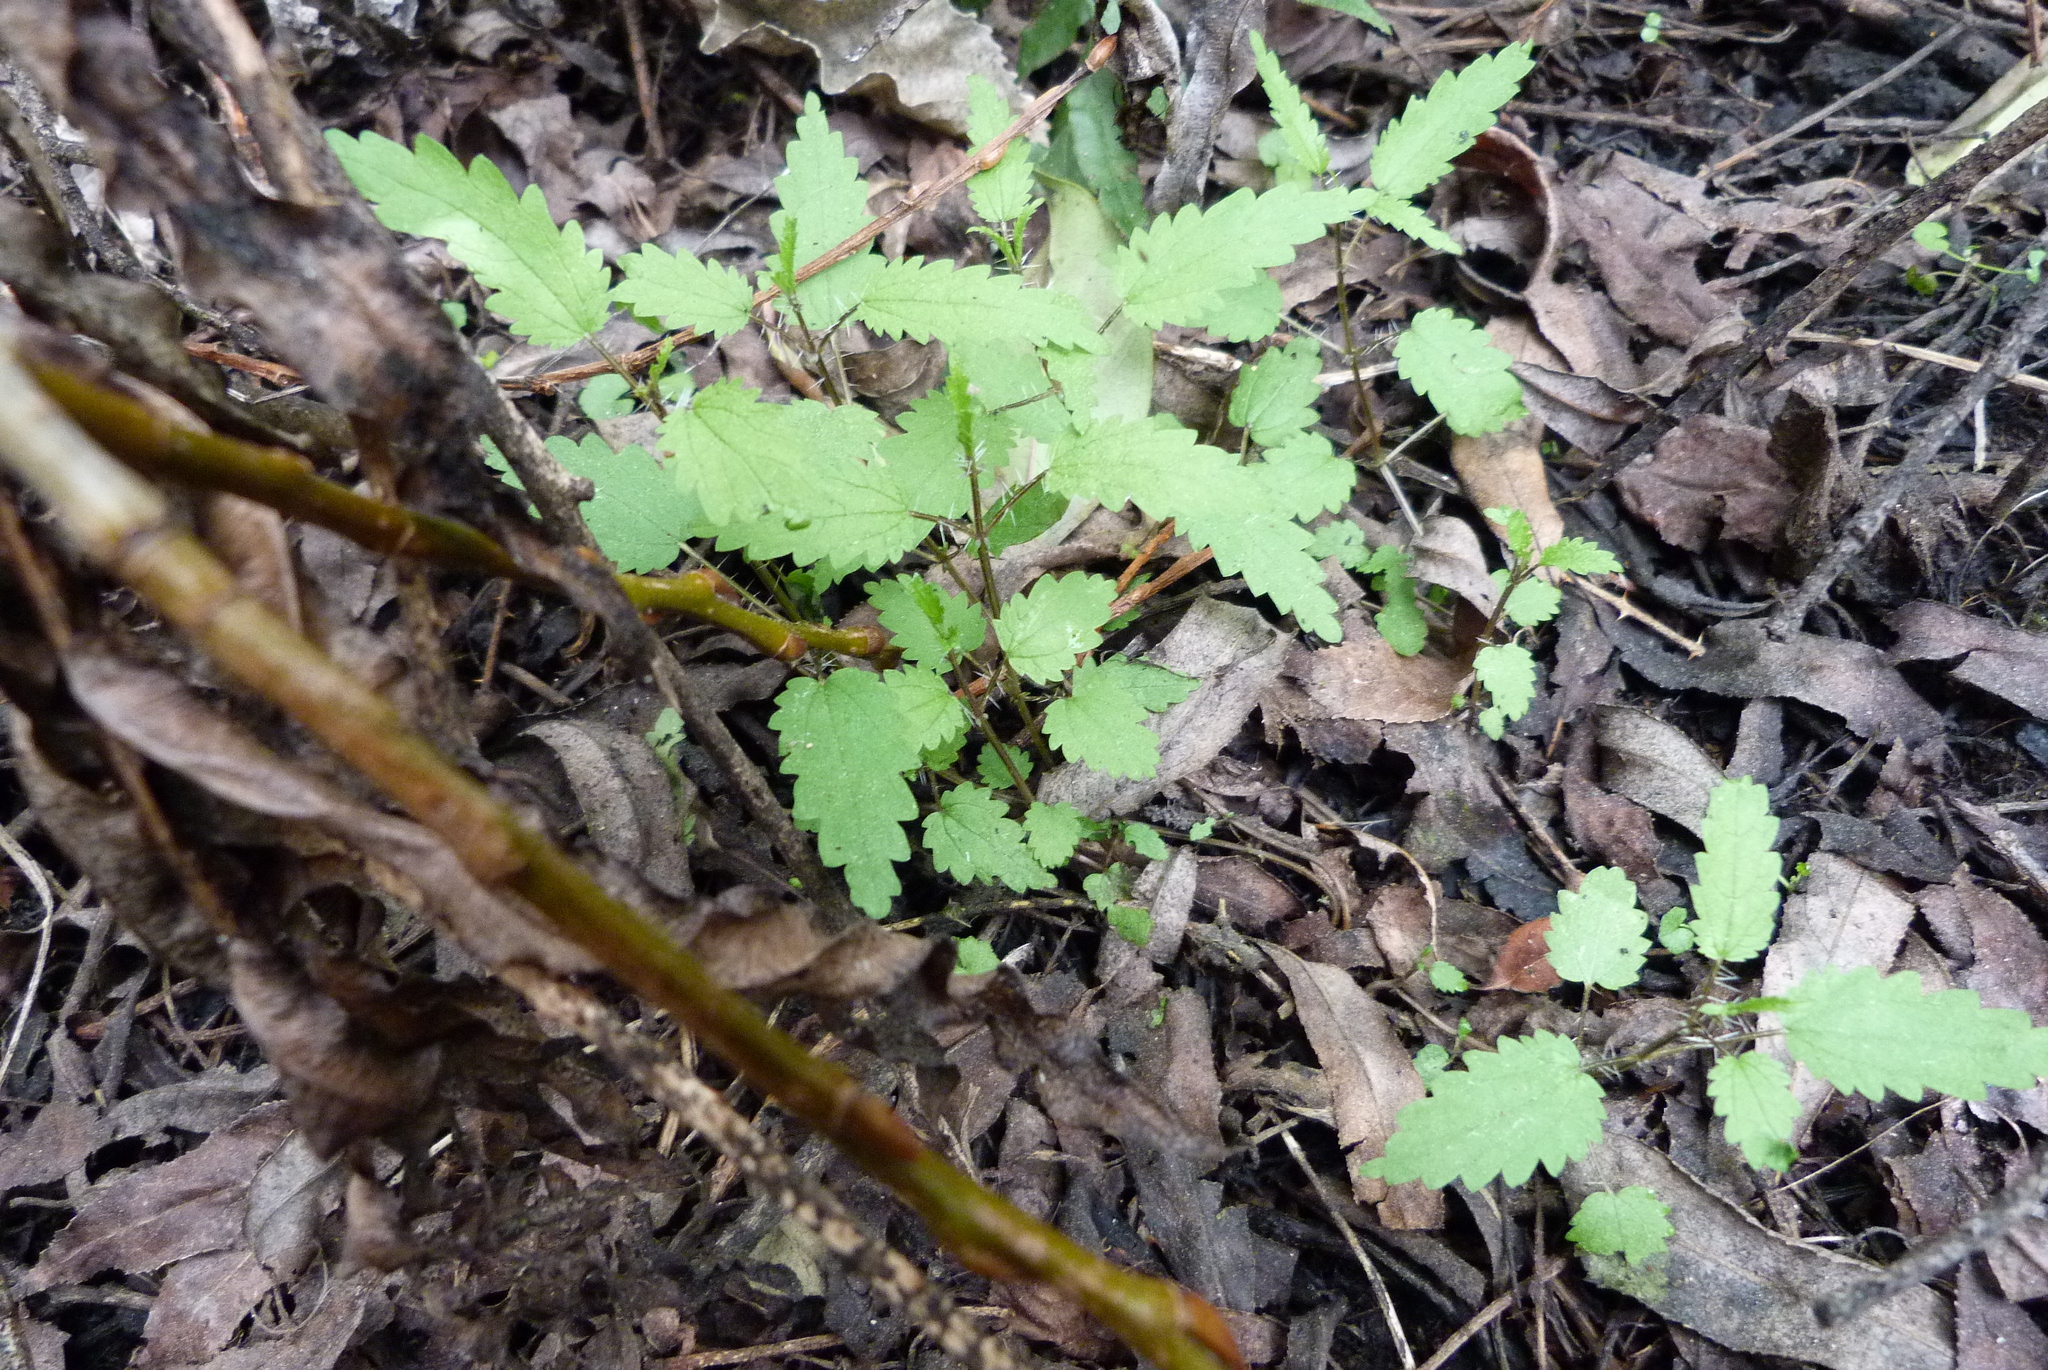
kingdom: Plantae
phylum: Tracheophyta
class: Magnoliopsida
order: Rosales
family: Urticaceae
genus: Urtica
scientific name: Urtica perconfusa
